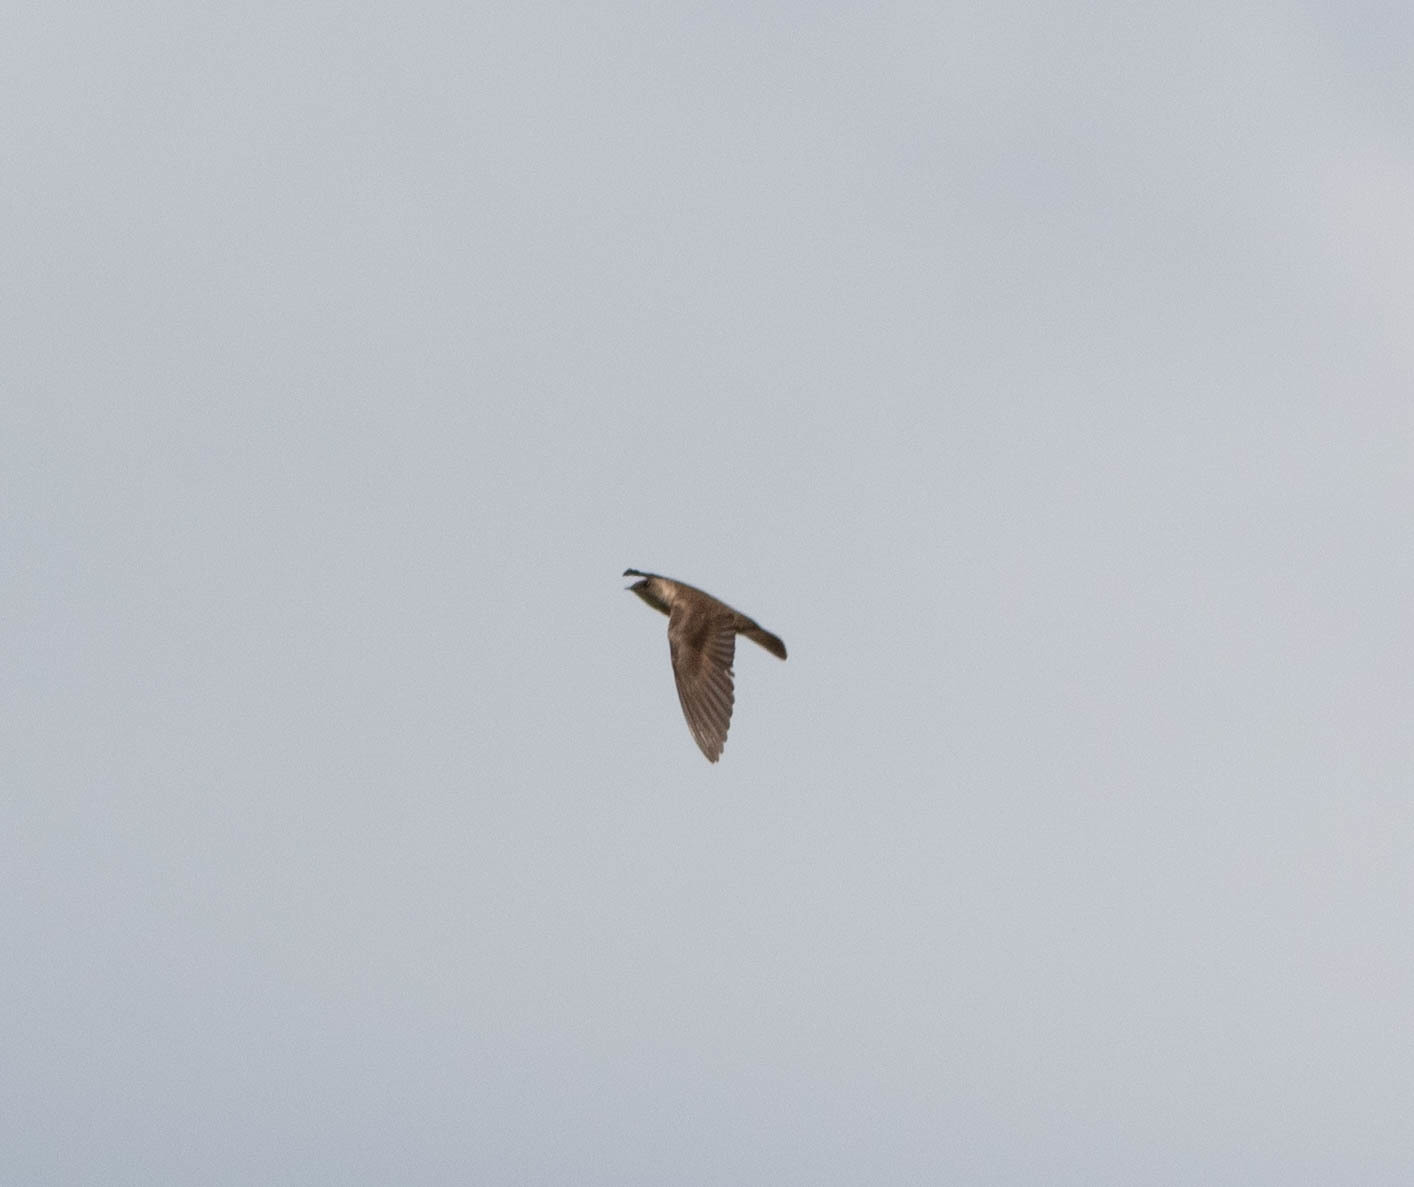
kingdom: Animalia
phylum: Chordata
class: Aves
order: Passeriformes
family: Hirundinidae
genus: Stelgidopteryx
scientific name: Stelgidopteryx serripennis
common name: Northern rough-winged swallow
